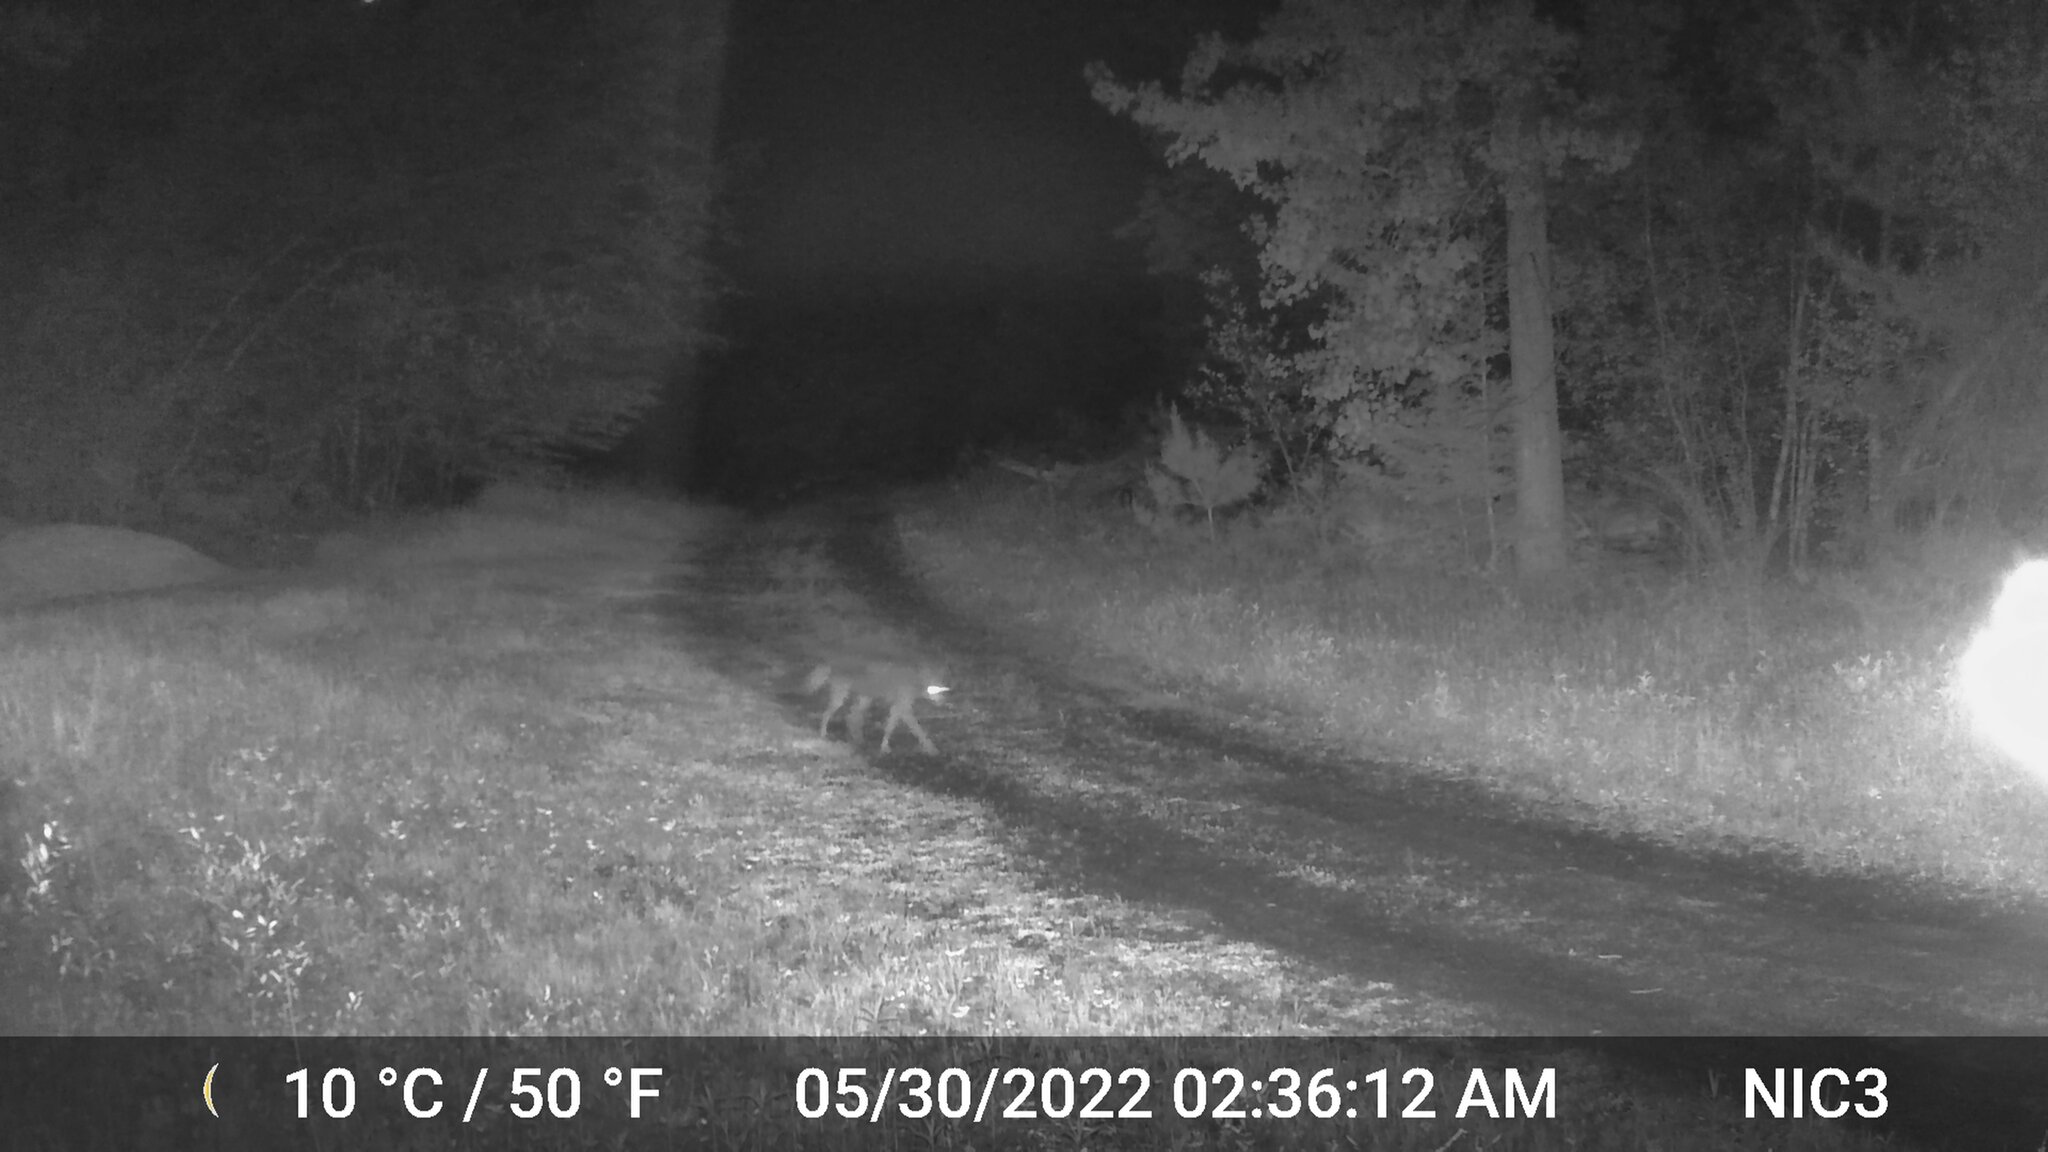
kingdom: Animalia
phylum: Chordata
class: Mammalia
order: Carnivora
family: Canidae
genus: Canis
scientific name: Canis latrans
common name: Coyote
